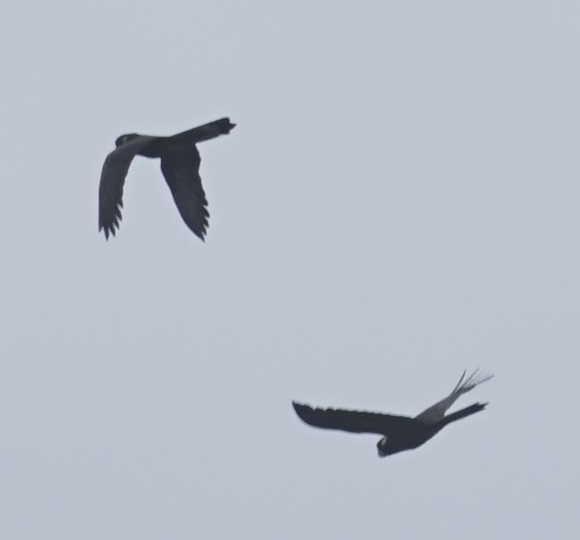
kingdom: Animalia
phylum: Chordata
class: Aves
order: Psittaciformes
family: Cacatuidae
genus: Zanda
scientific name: Zanda funerea
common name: Yellow-tailed black-cockatoo
